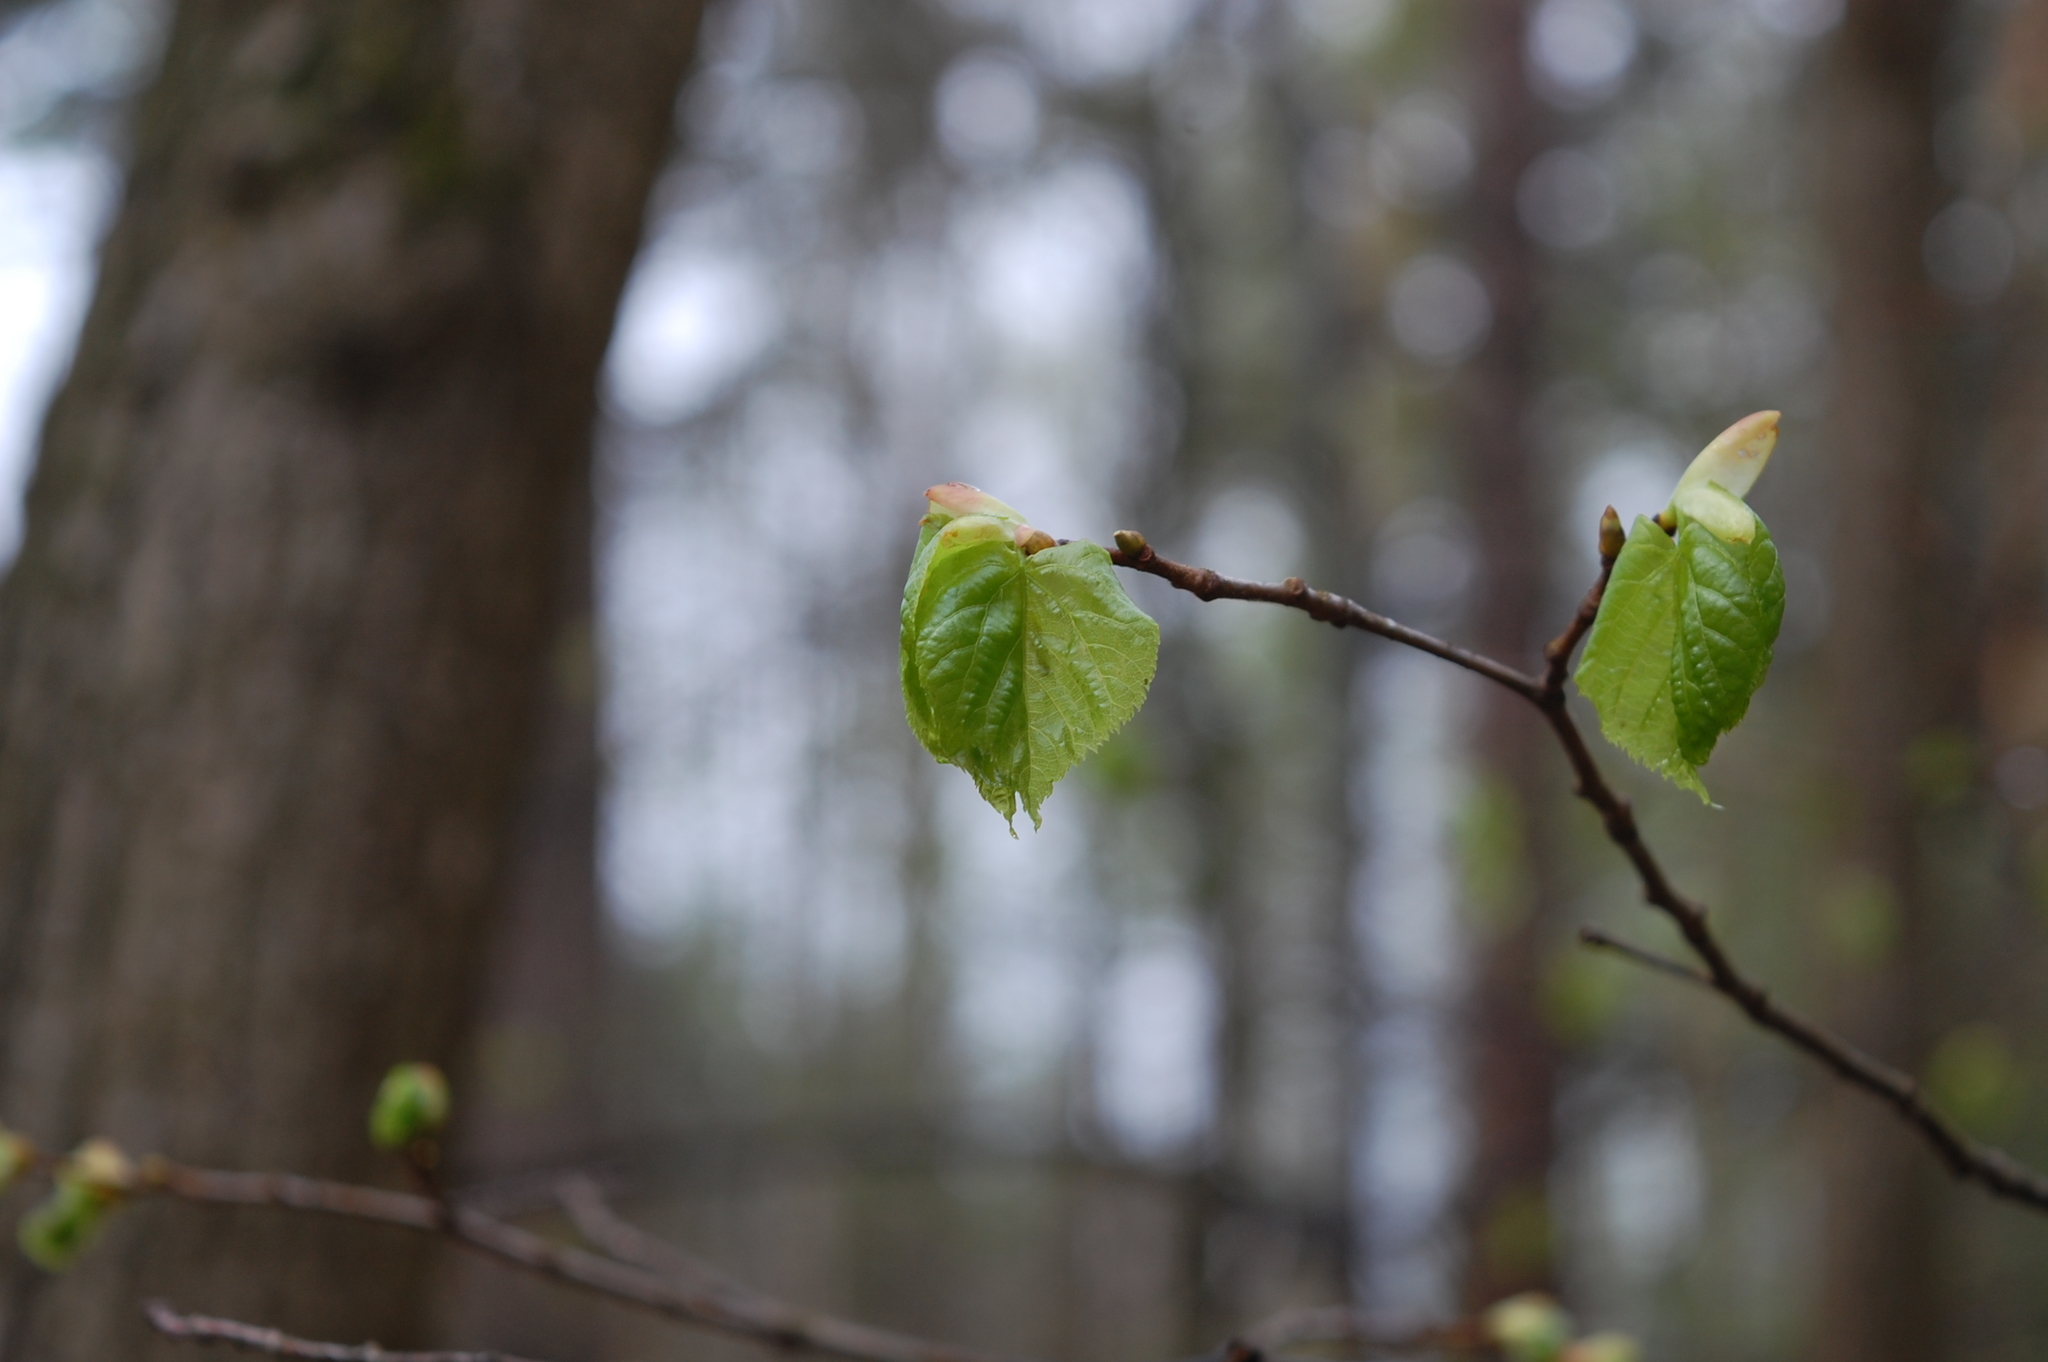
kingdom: Plantae
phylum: Tracheophyta
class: Magnoliopsida
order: Malvales
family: Malvaceae
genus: Tilia
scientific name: Tilia cordata
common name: Small-leaved lime
